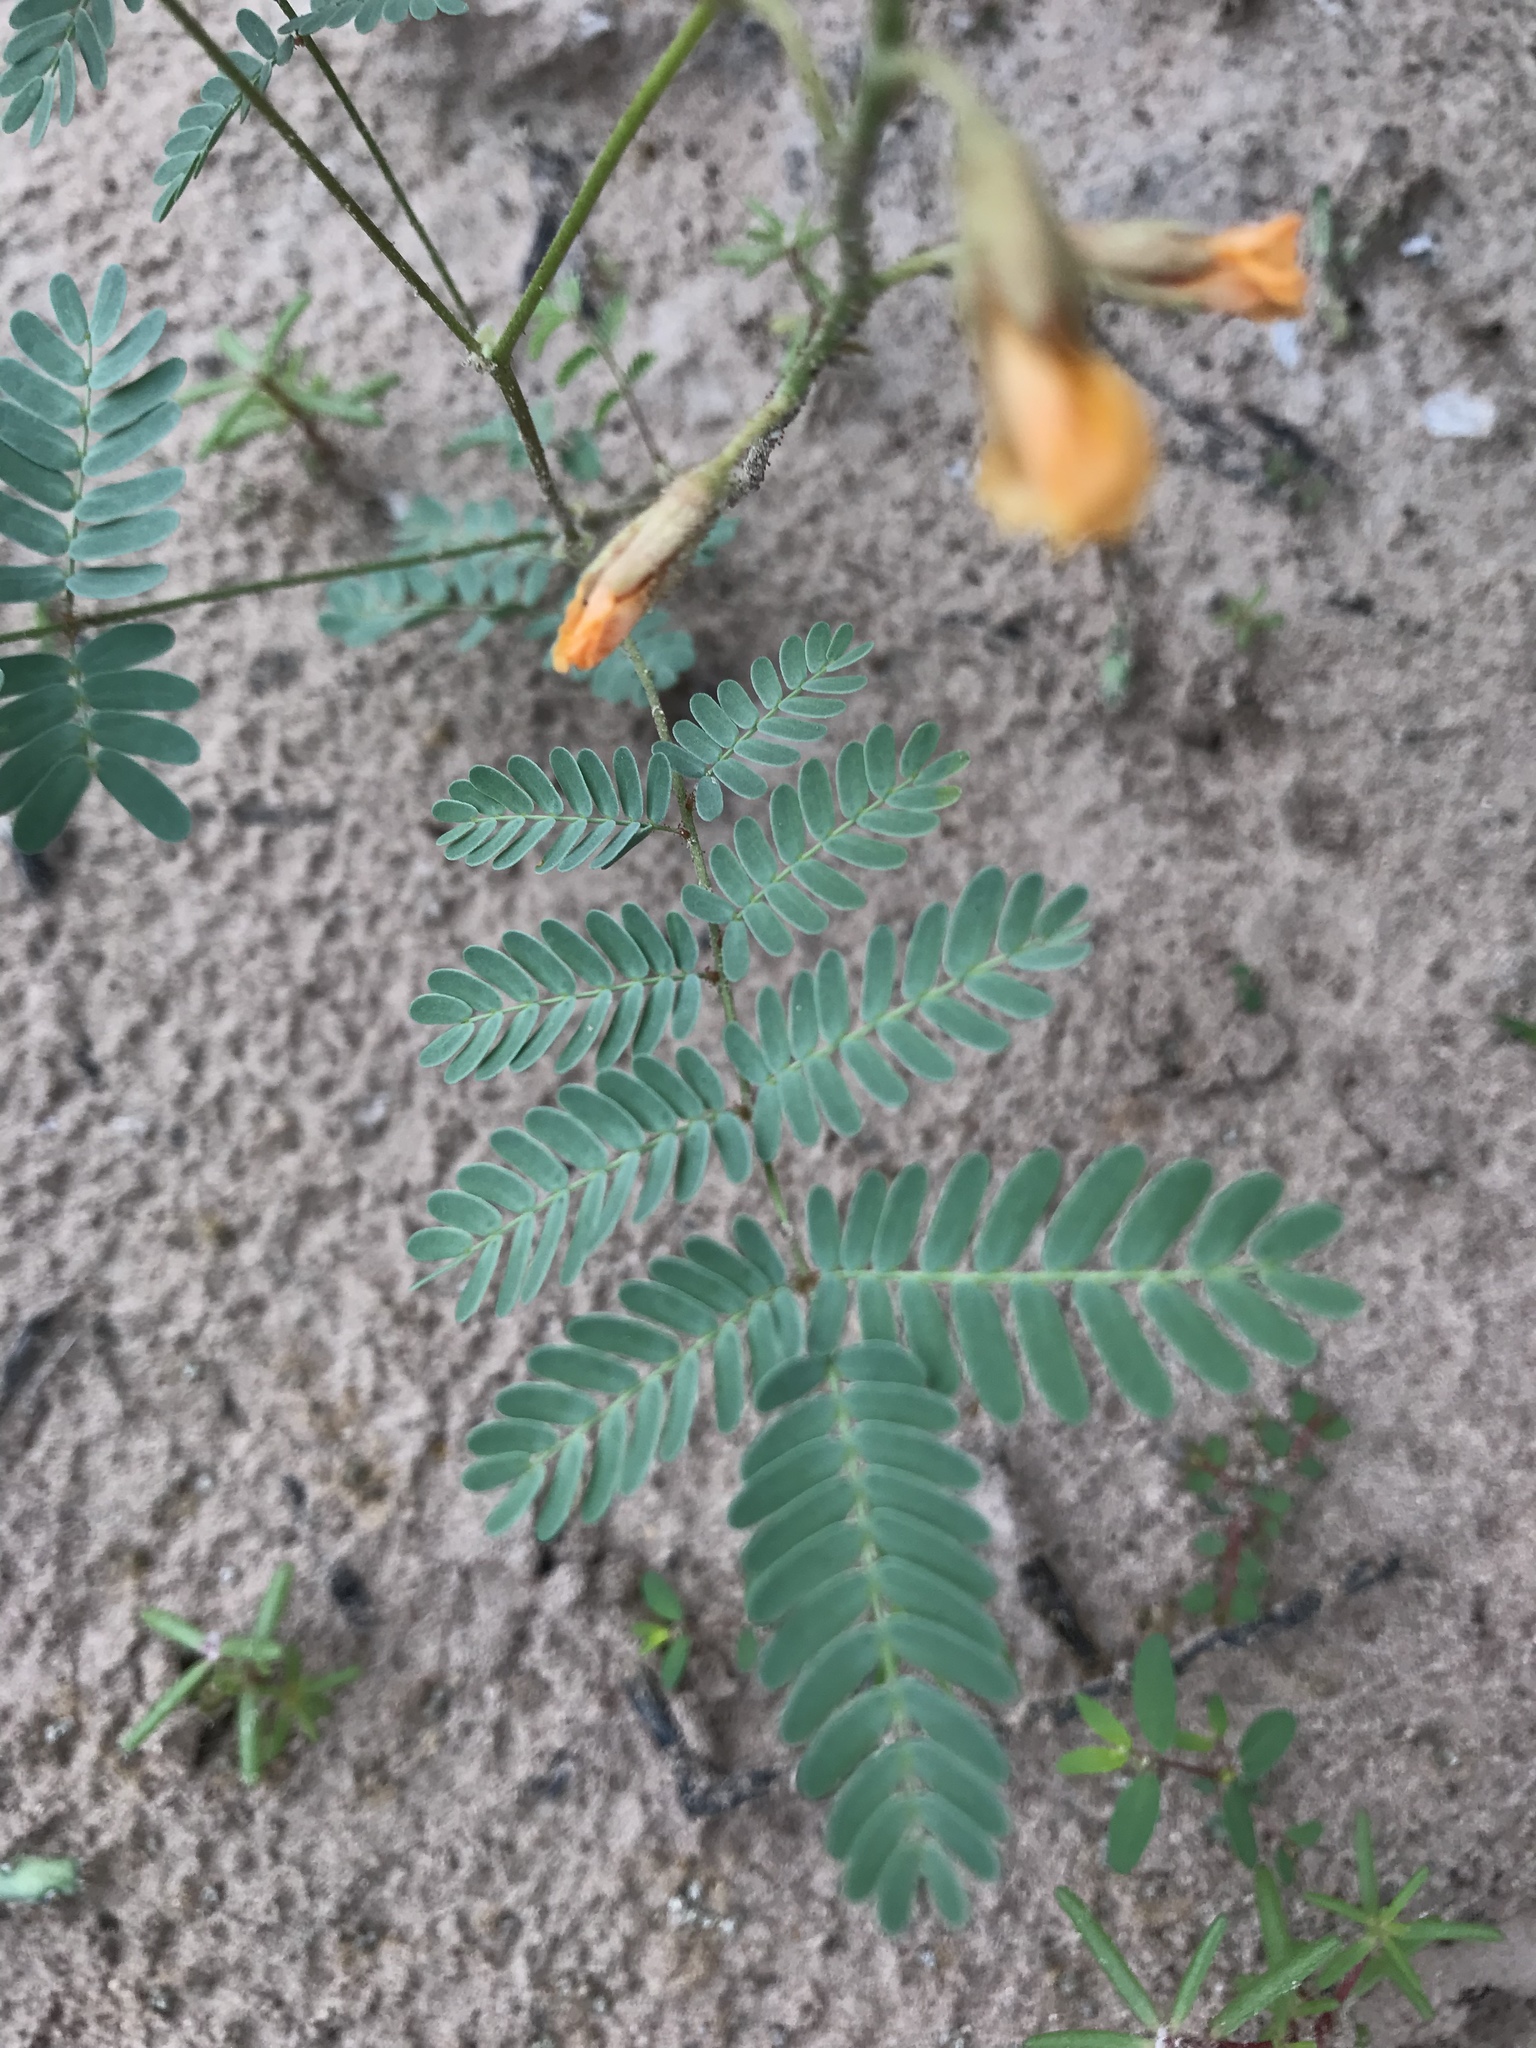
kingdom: Plantae
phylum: Tracheophyta
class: Magnoliopsida
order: Fabales
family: Fabaceae
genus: Hoffmannseggia
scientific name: Hoffmannseggia glauca
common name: Pignut
